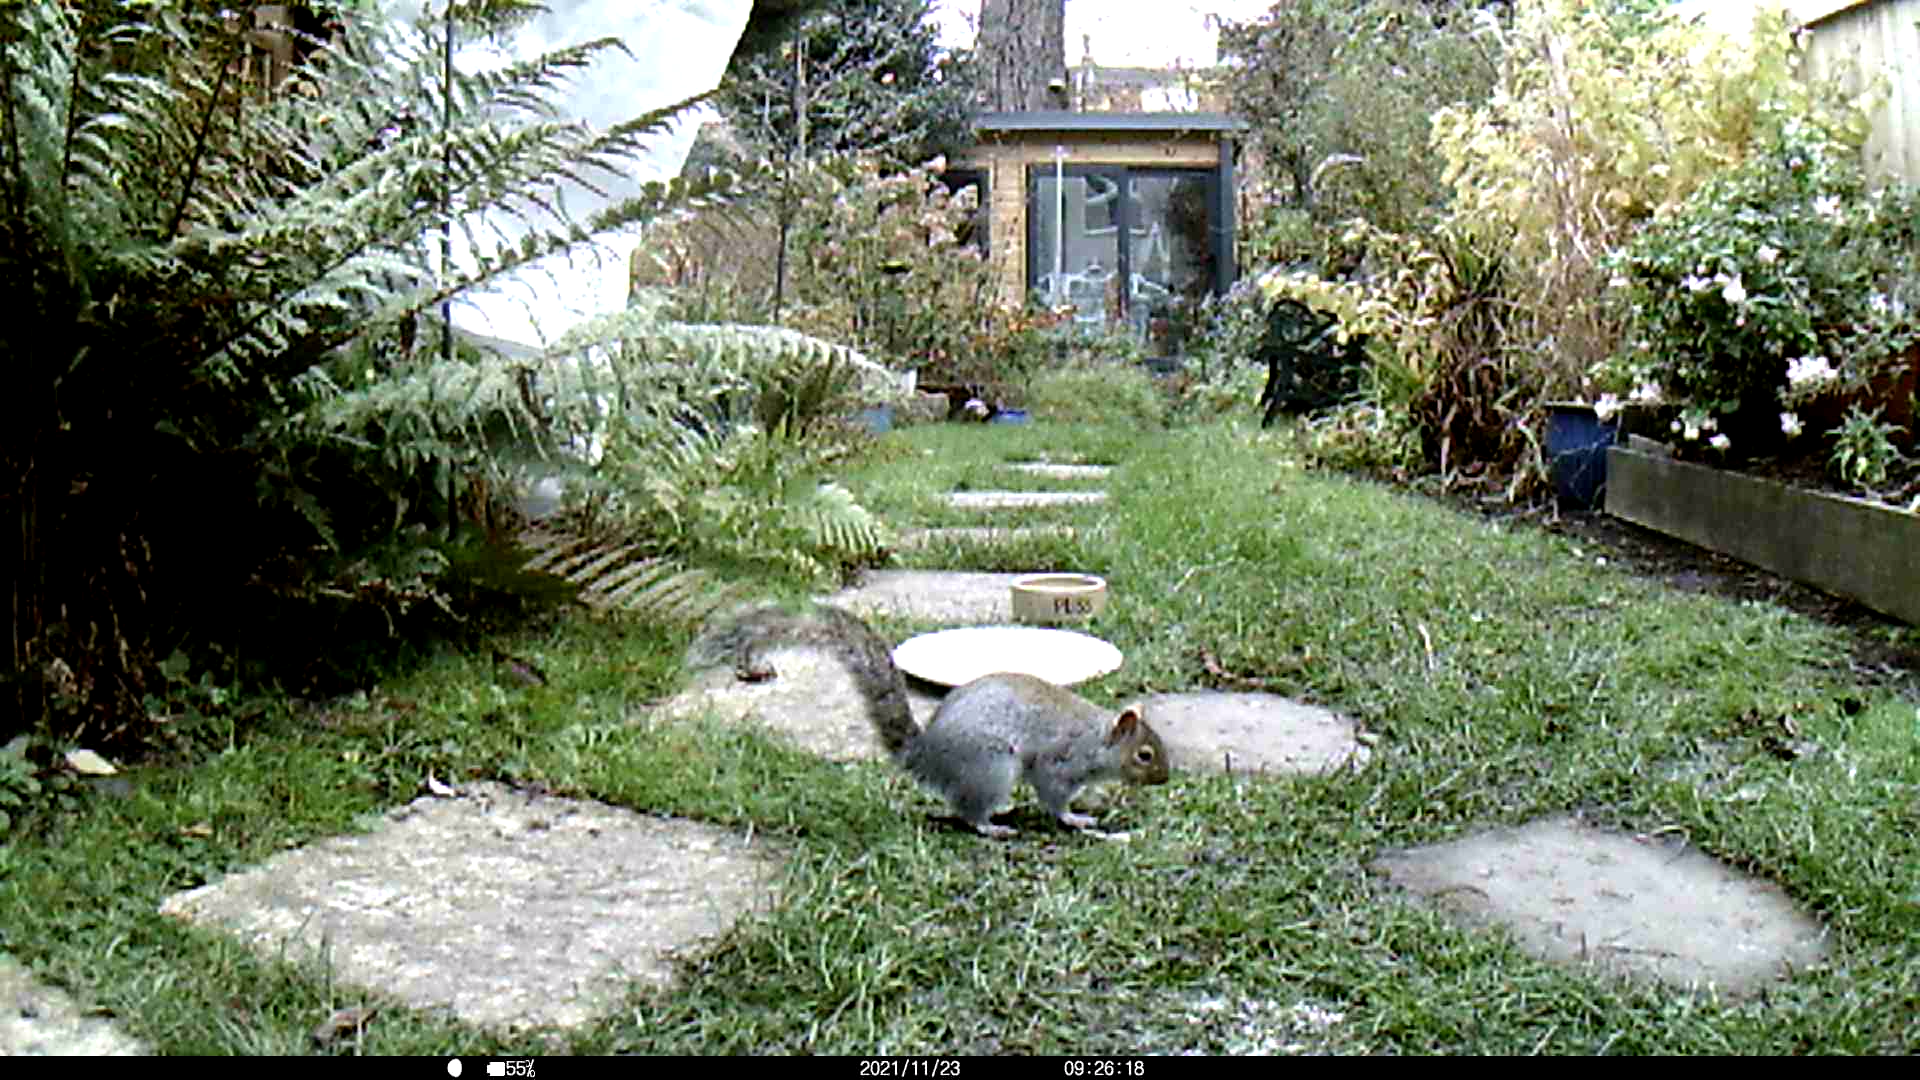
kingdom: Animalia
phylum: Chordata
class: Mammalia
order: Rodentia
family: Sciuridae
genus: Sciurus
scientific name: Sciurus carolinensis
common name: Eastern gray squirrel
